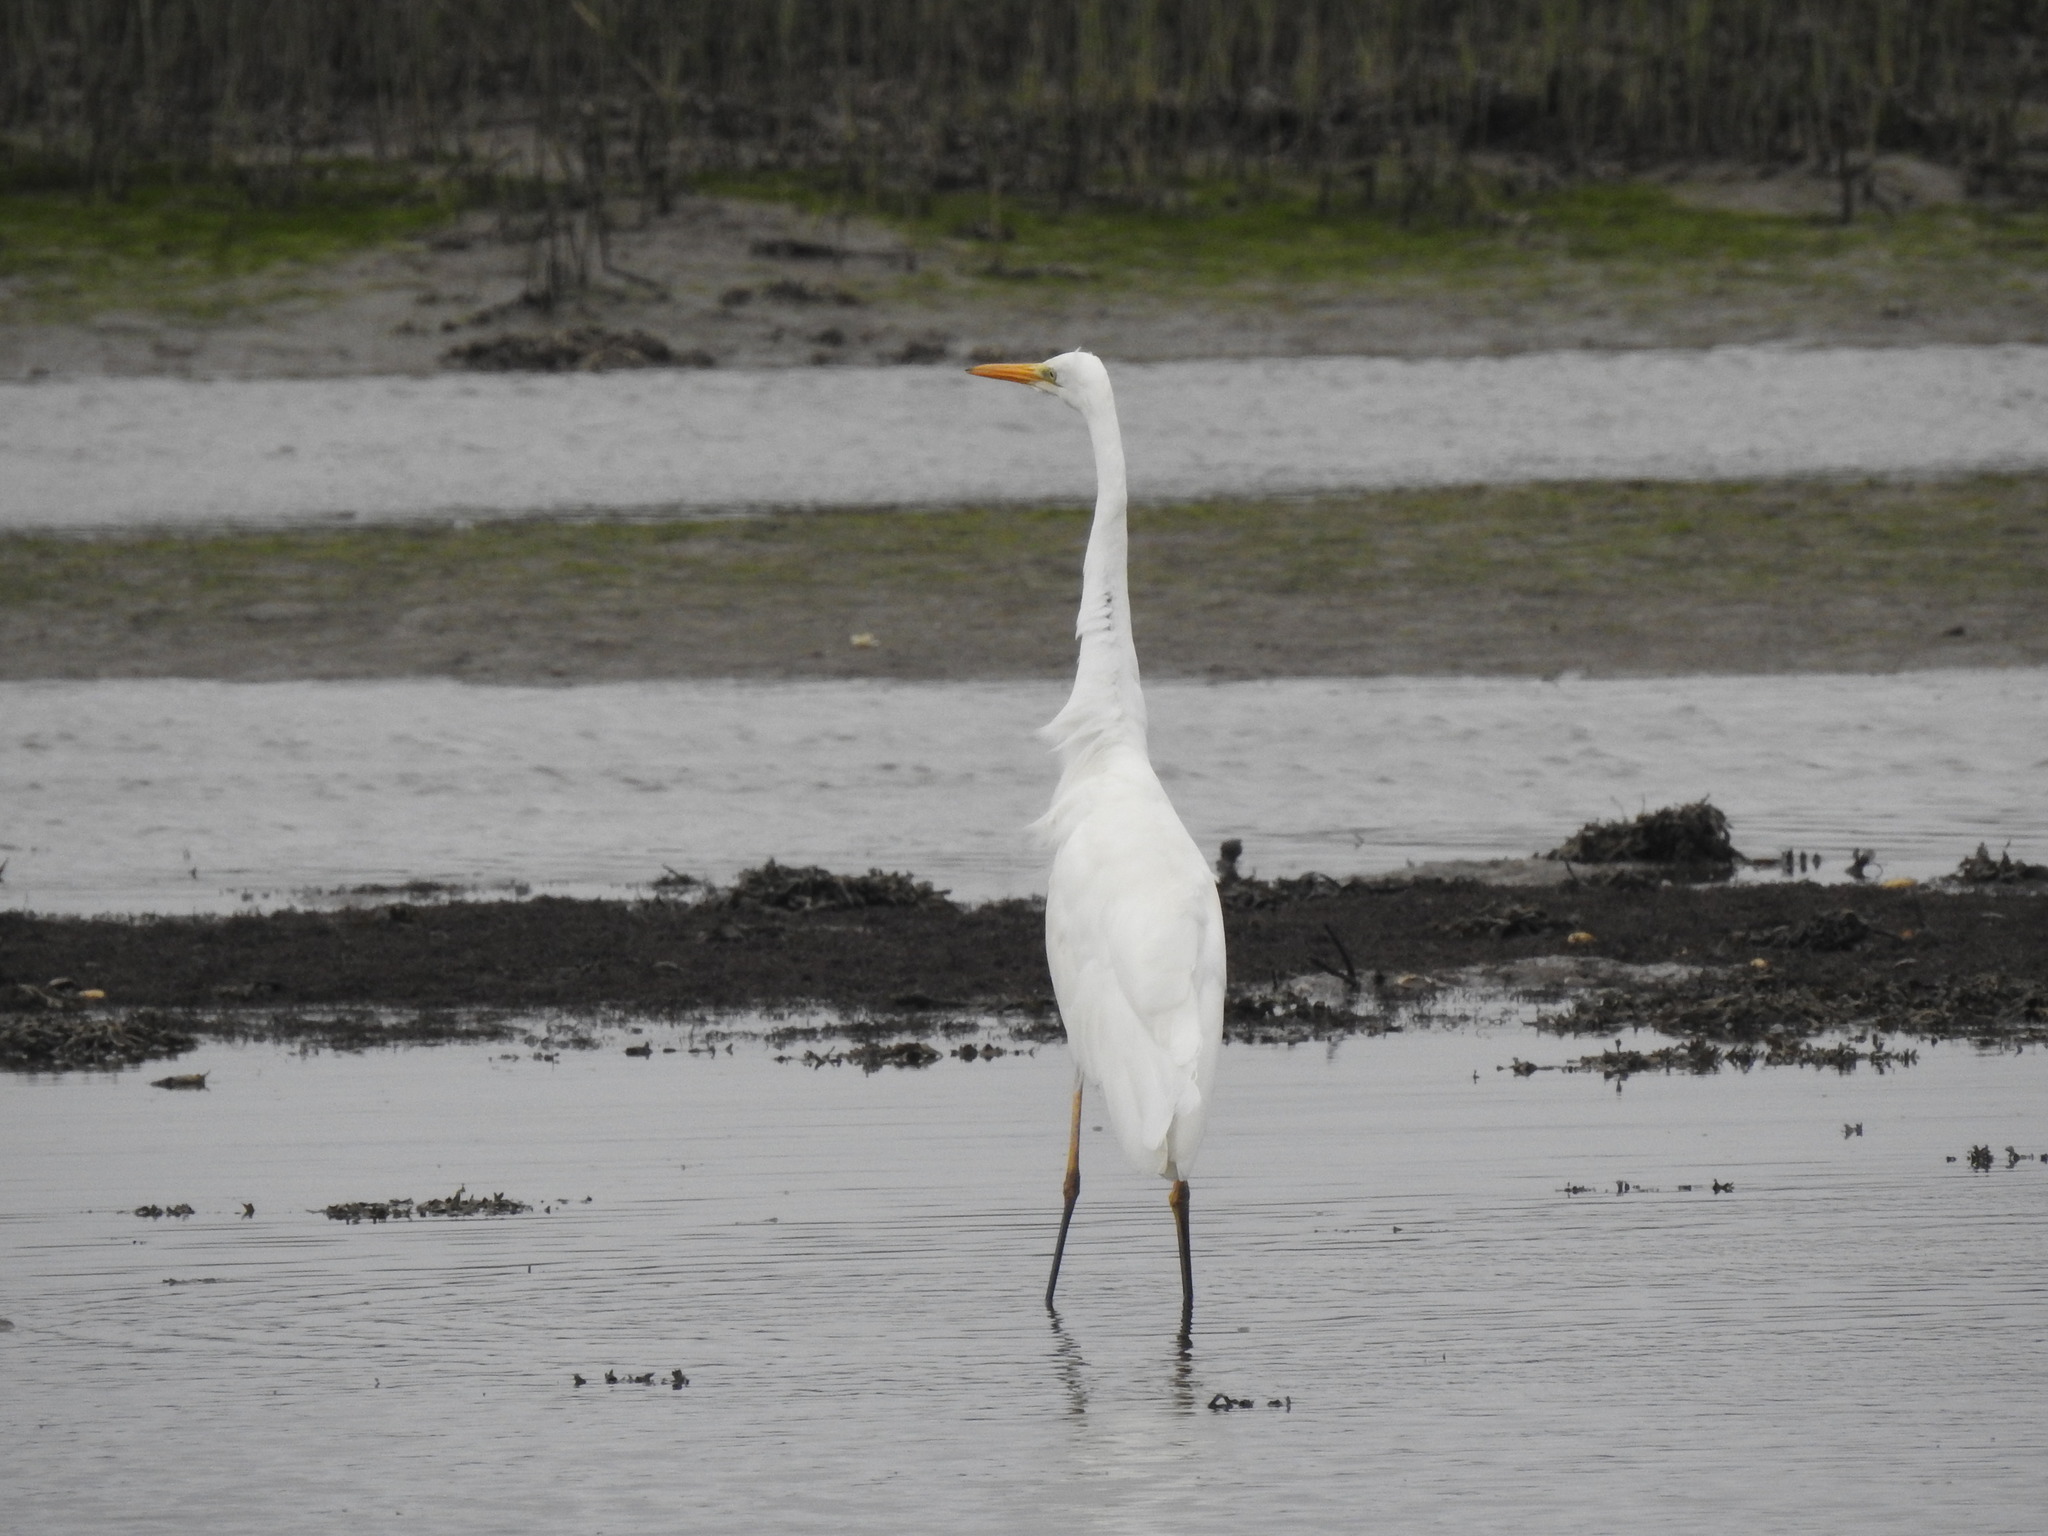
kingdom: Animalia
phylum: Chordata
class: Aves
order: Pelecaniformes
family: Ardeidae
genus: Ardea
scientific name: Ardea alba
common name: Great egret
